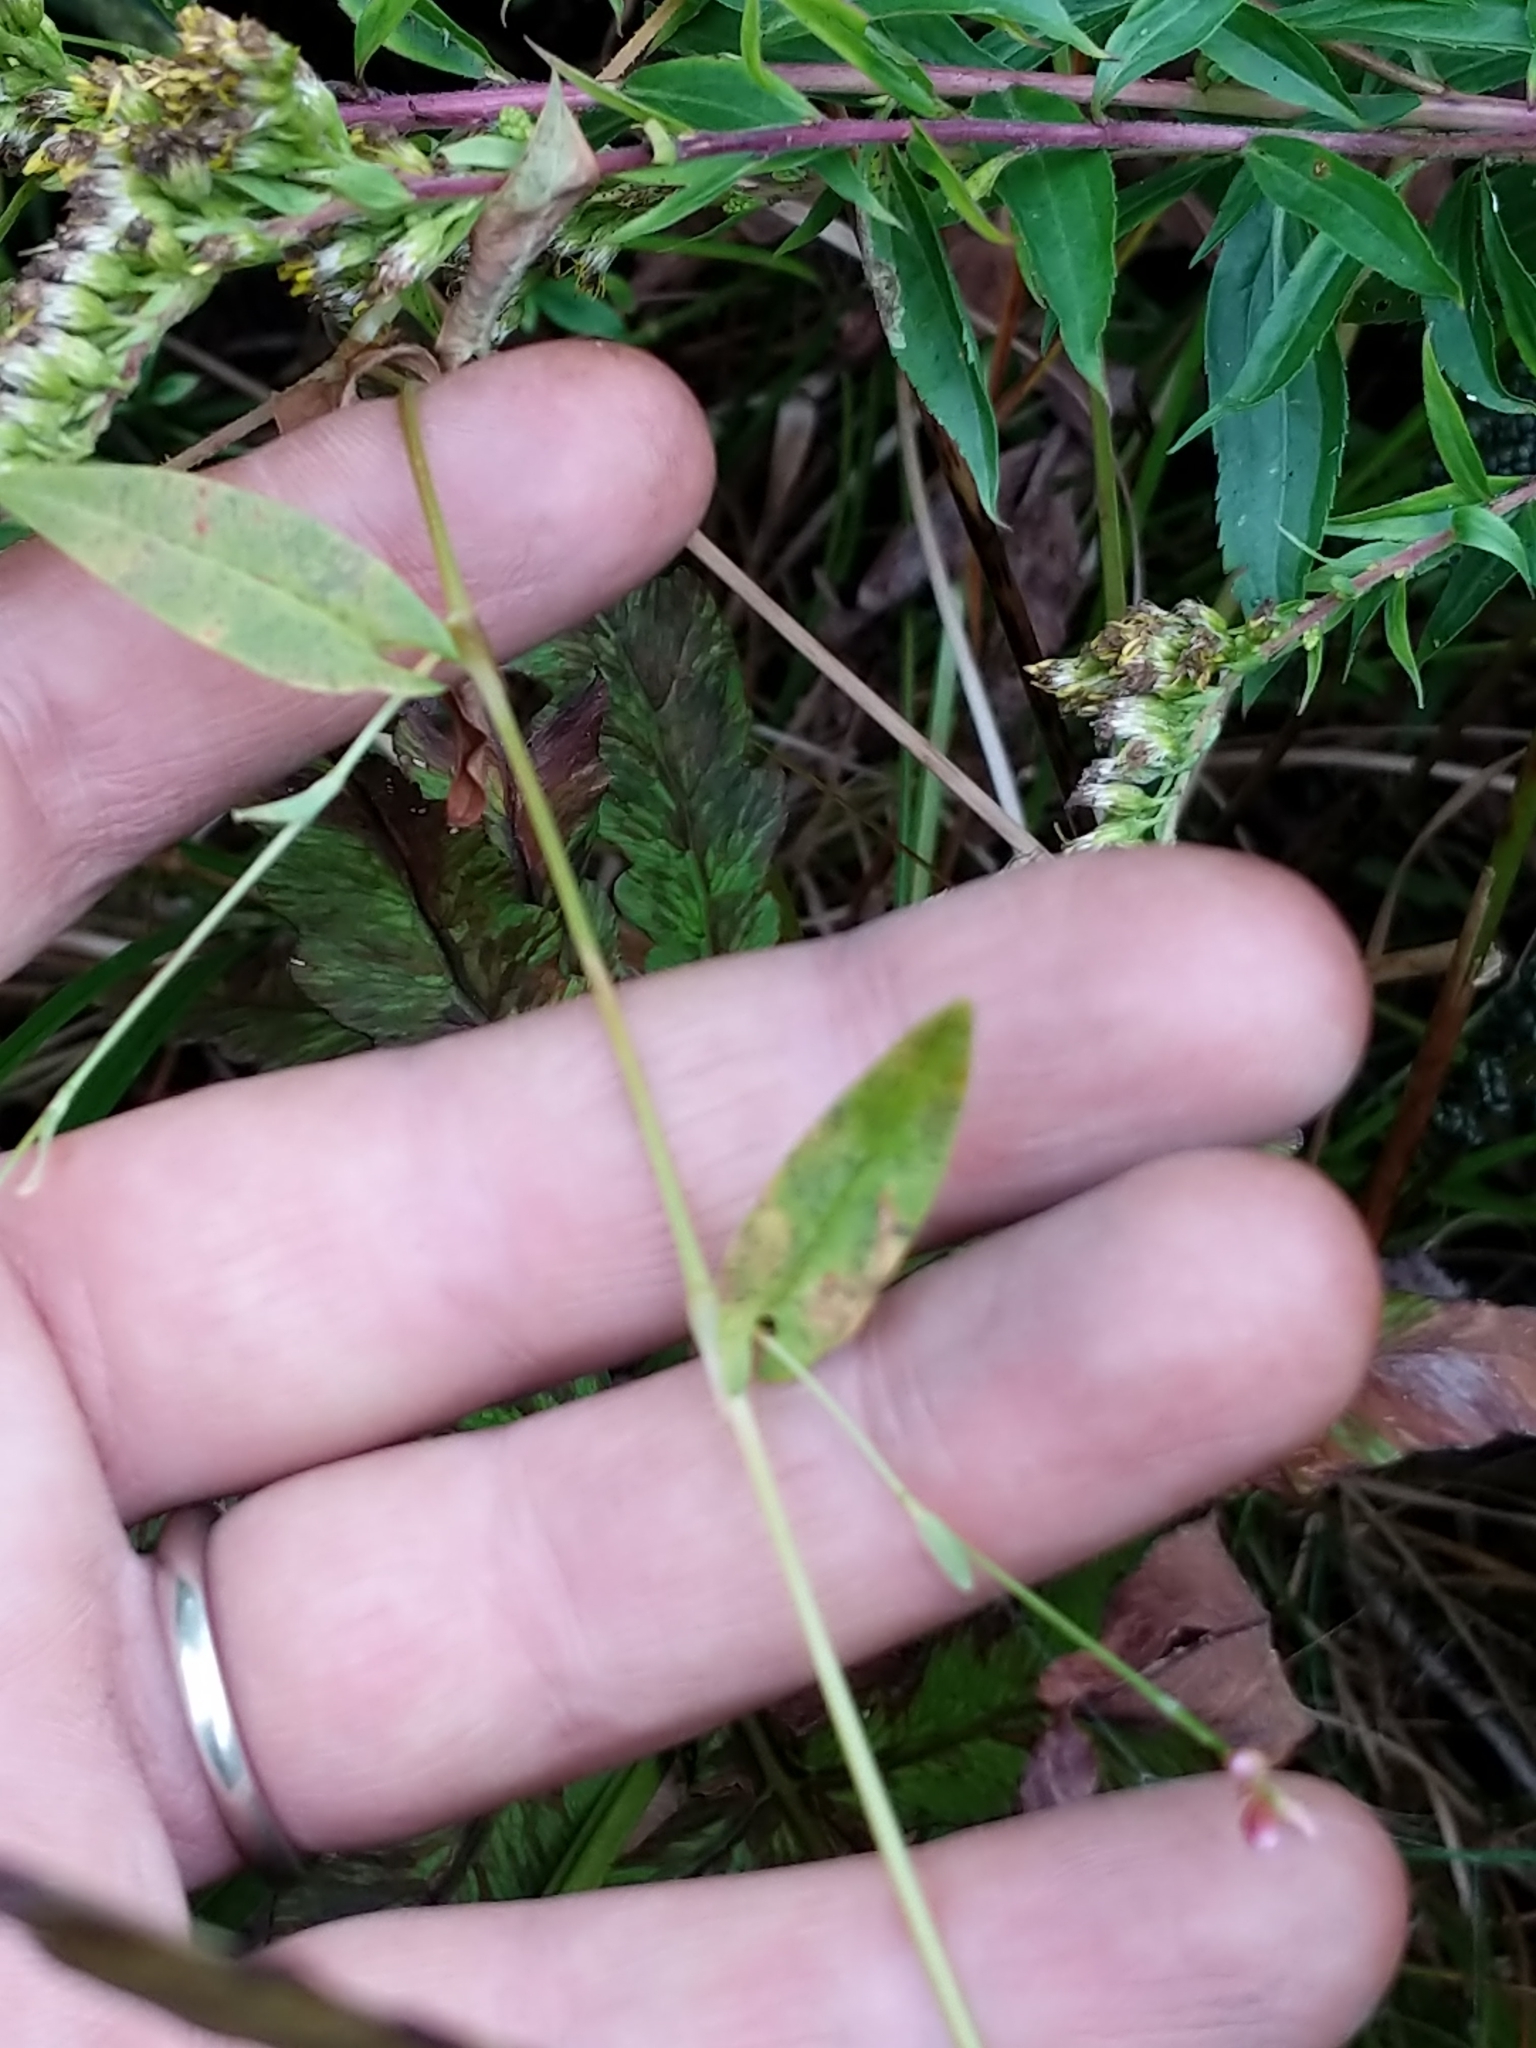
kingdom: Plantae
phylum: Tracheophyta
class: Magnoliopsida
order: Caryophyllales
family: Polygonaceae
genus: Persicaria
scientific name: Persicaria sagittata
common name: American tearthumb
